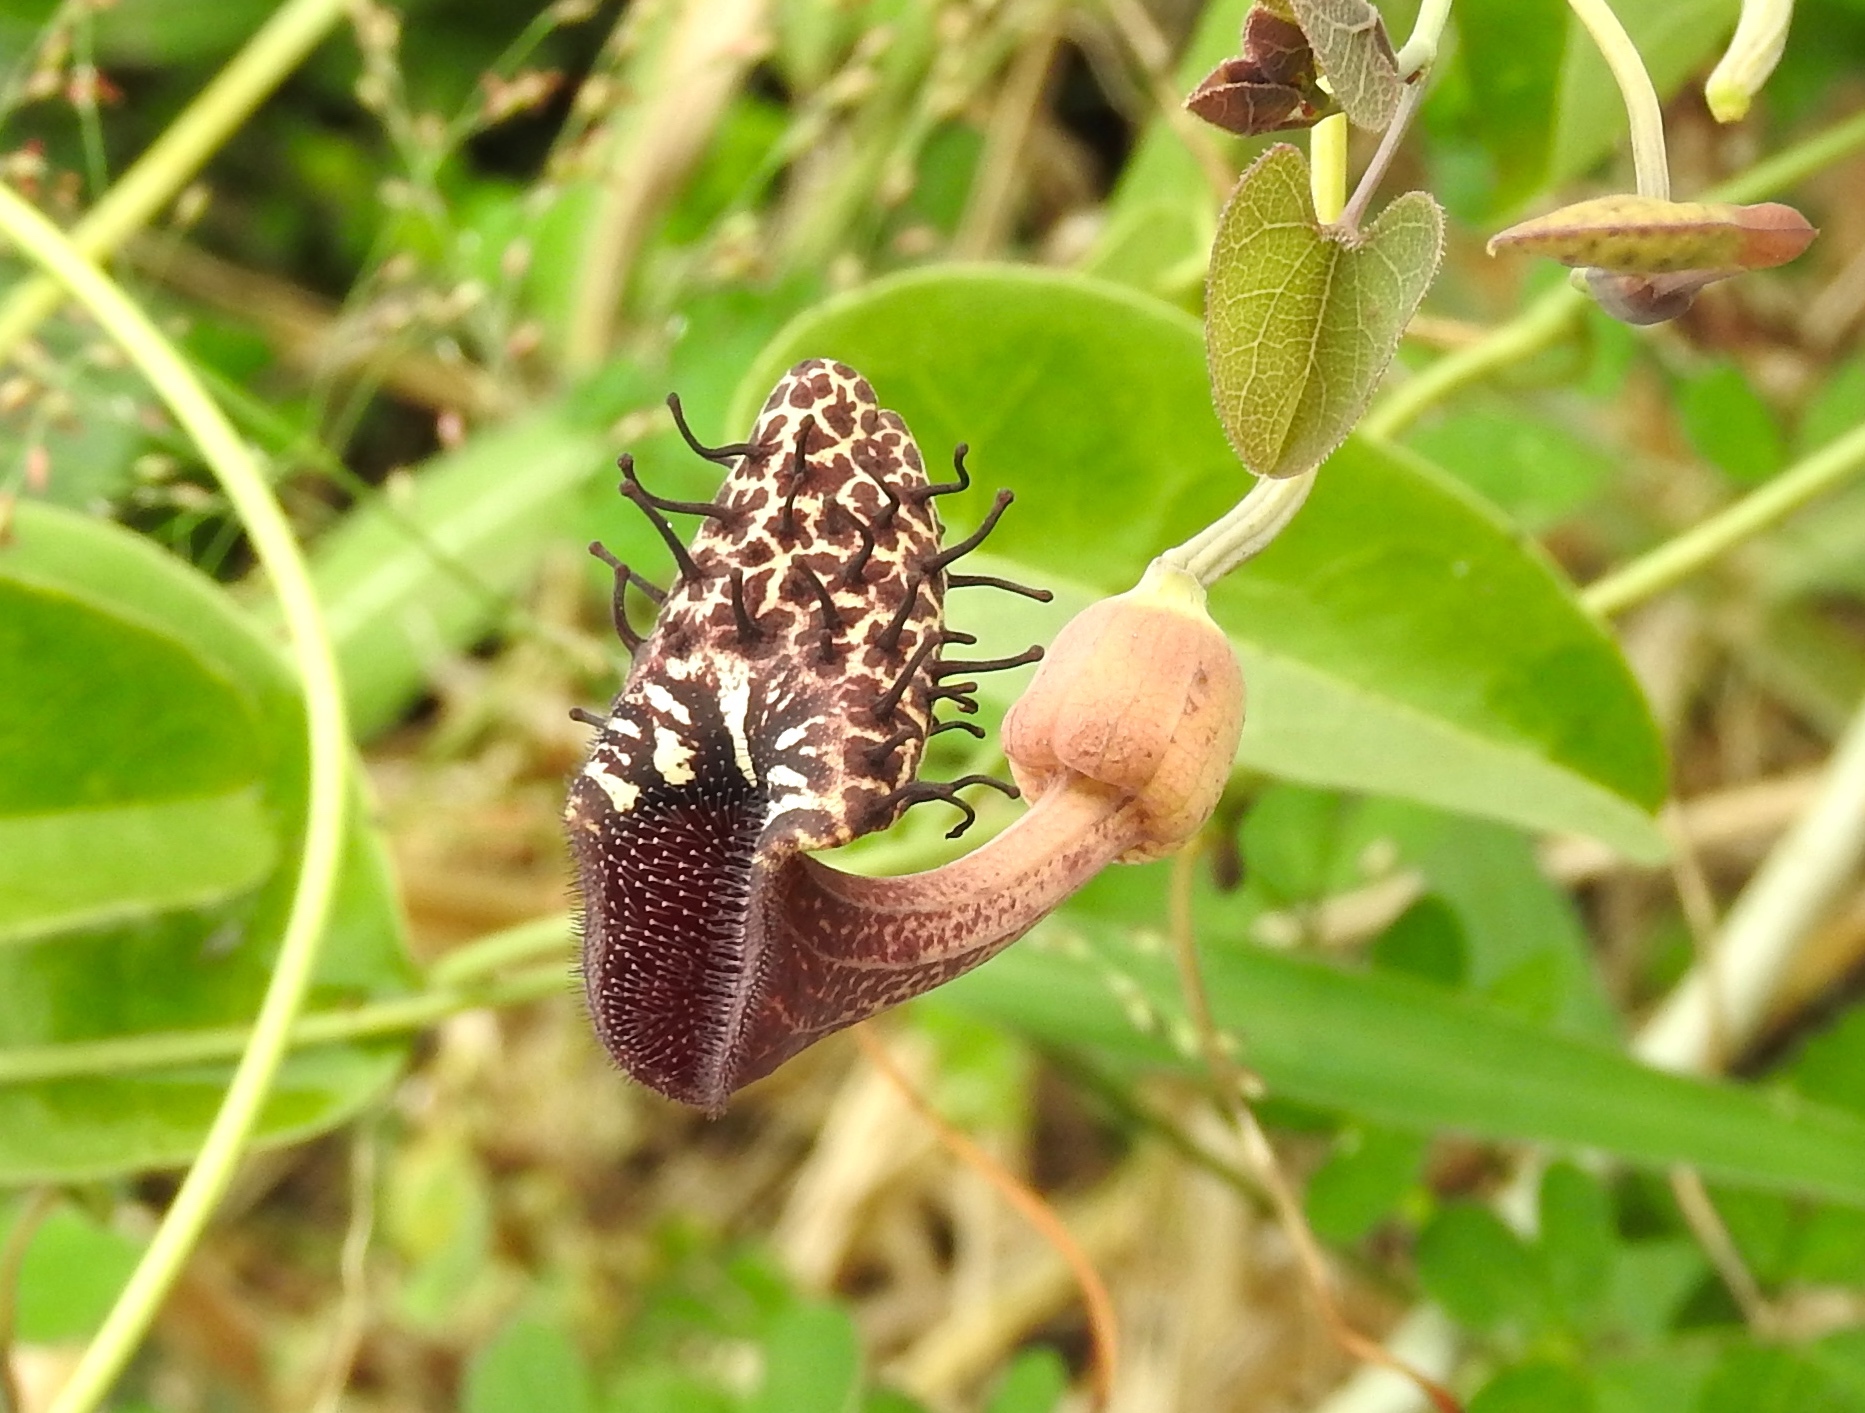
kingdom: Plantae
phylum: Tracheophyta
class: Magnoliopsida
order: Piperales
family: Aristolochiaceae
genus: Aristolochia
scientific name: Aristolochia taliscana
